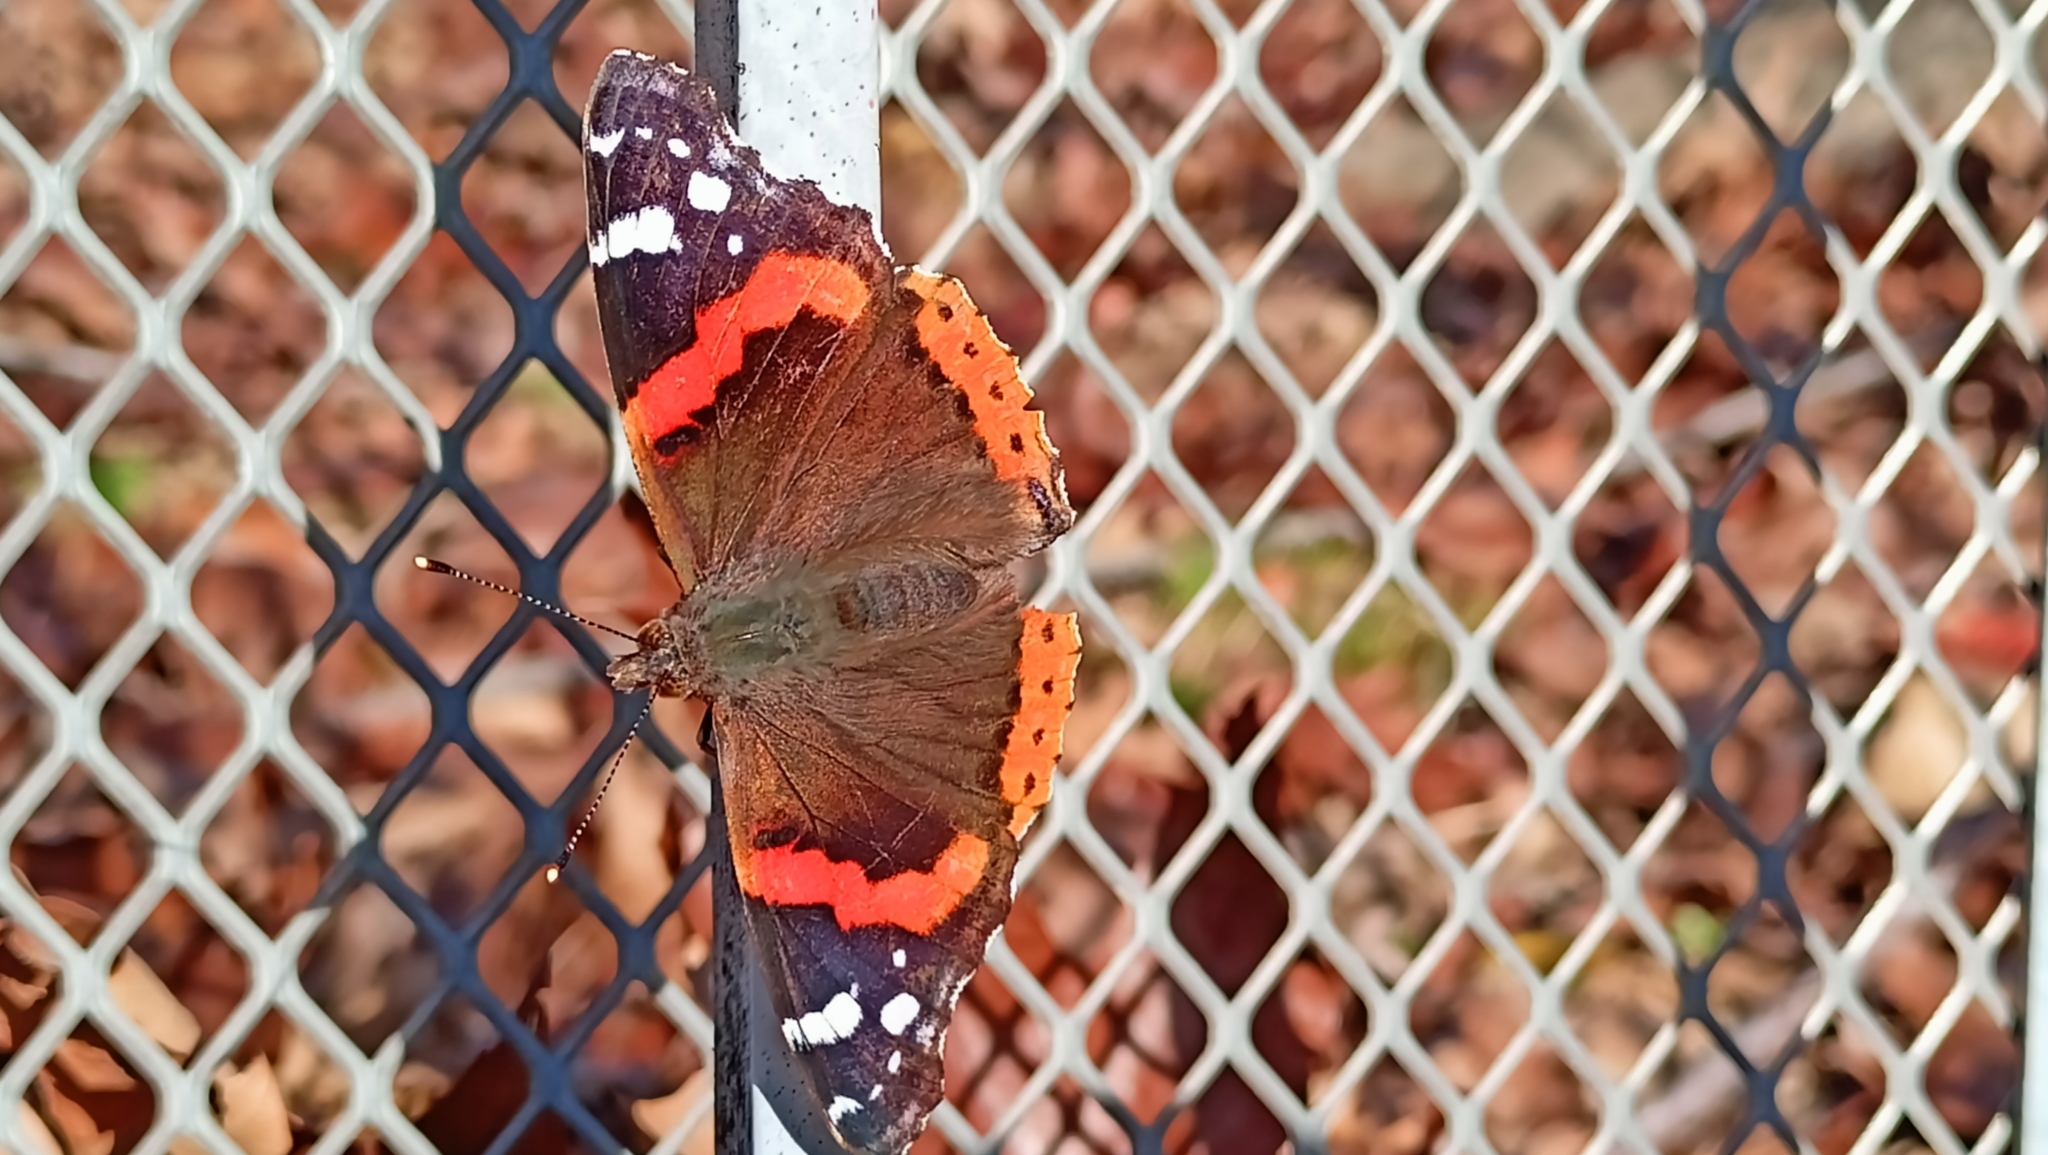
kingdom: Animalia
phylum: Arthropoda
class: Insecta
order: Lepidoptera
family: Nymphalidae
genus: Vanessa
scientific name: Vanessa atalanta
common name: Red admiral
